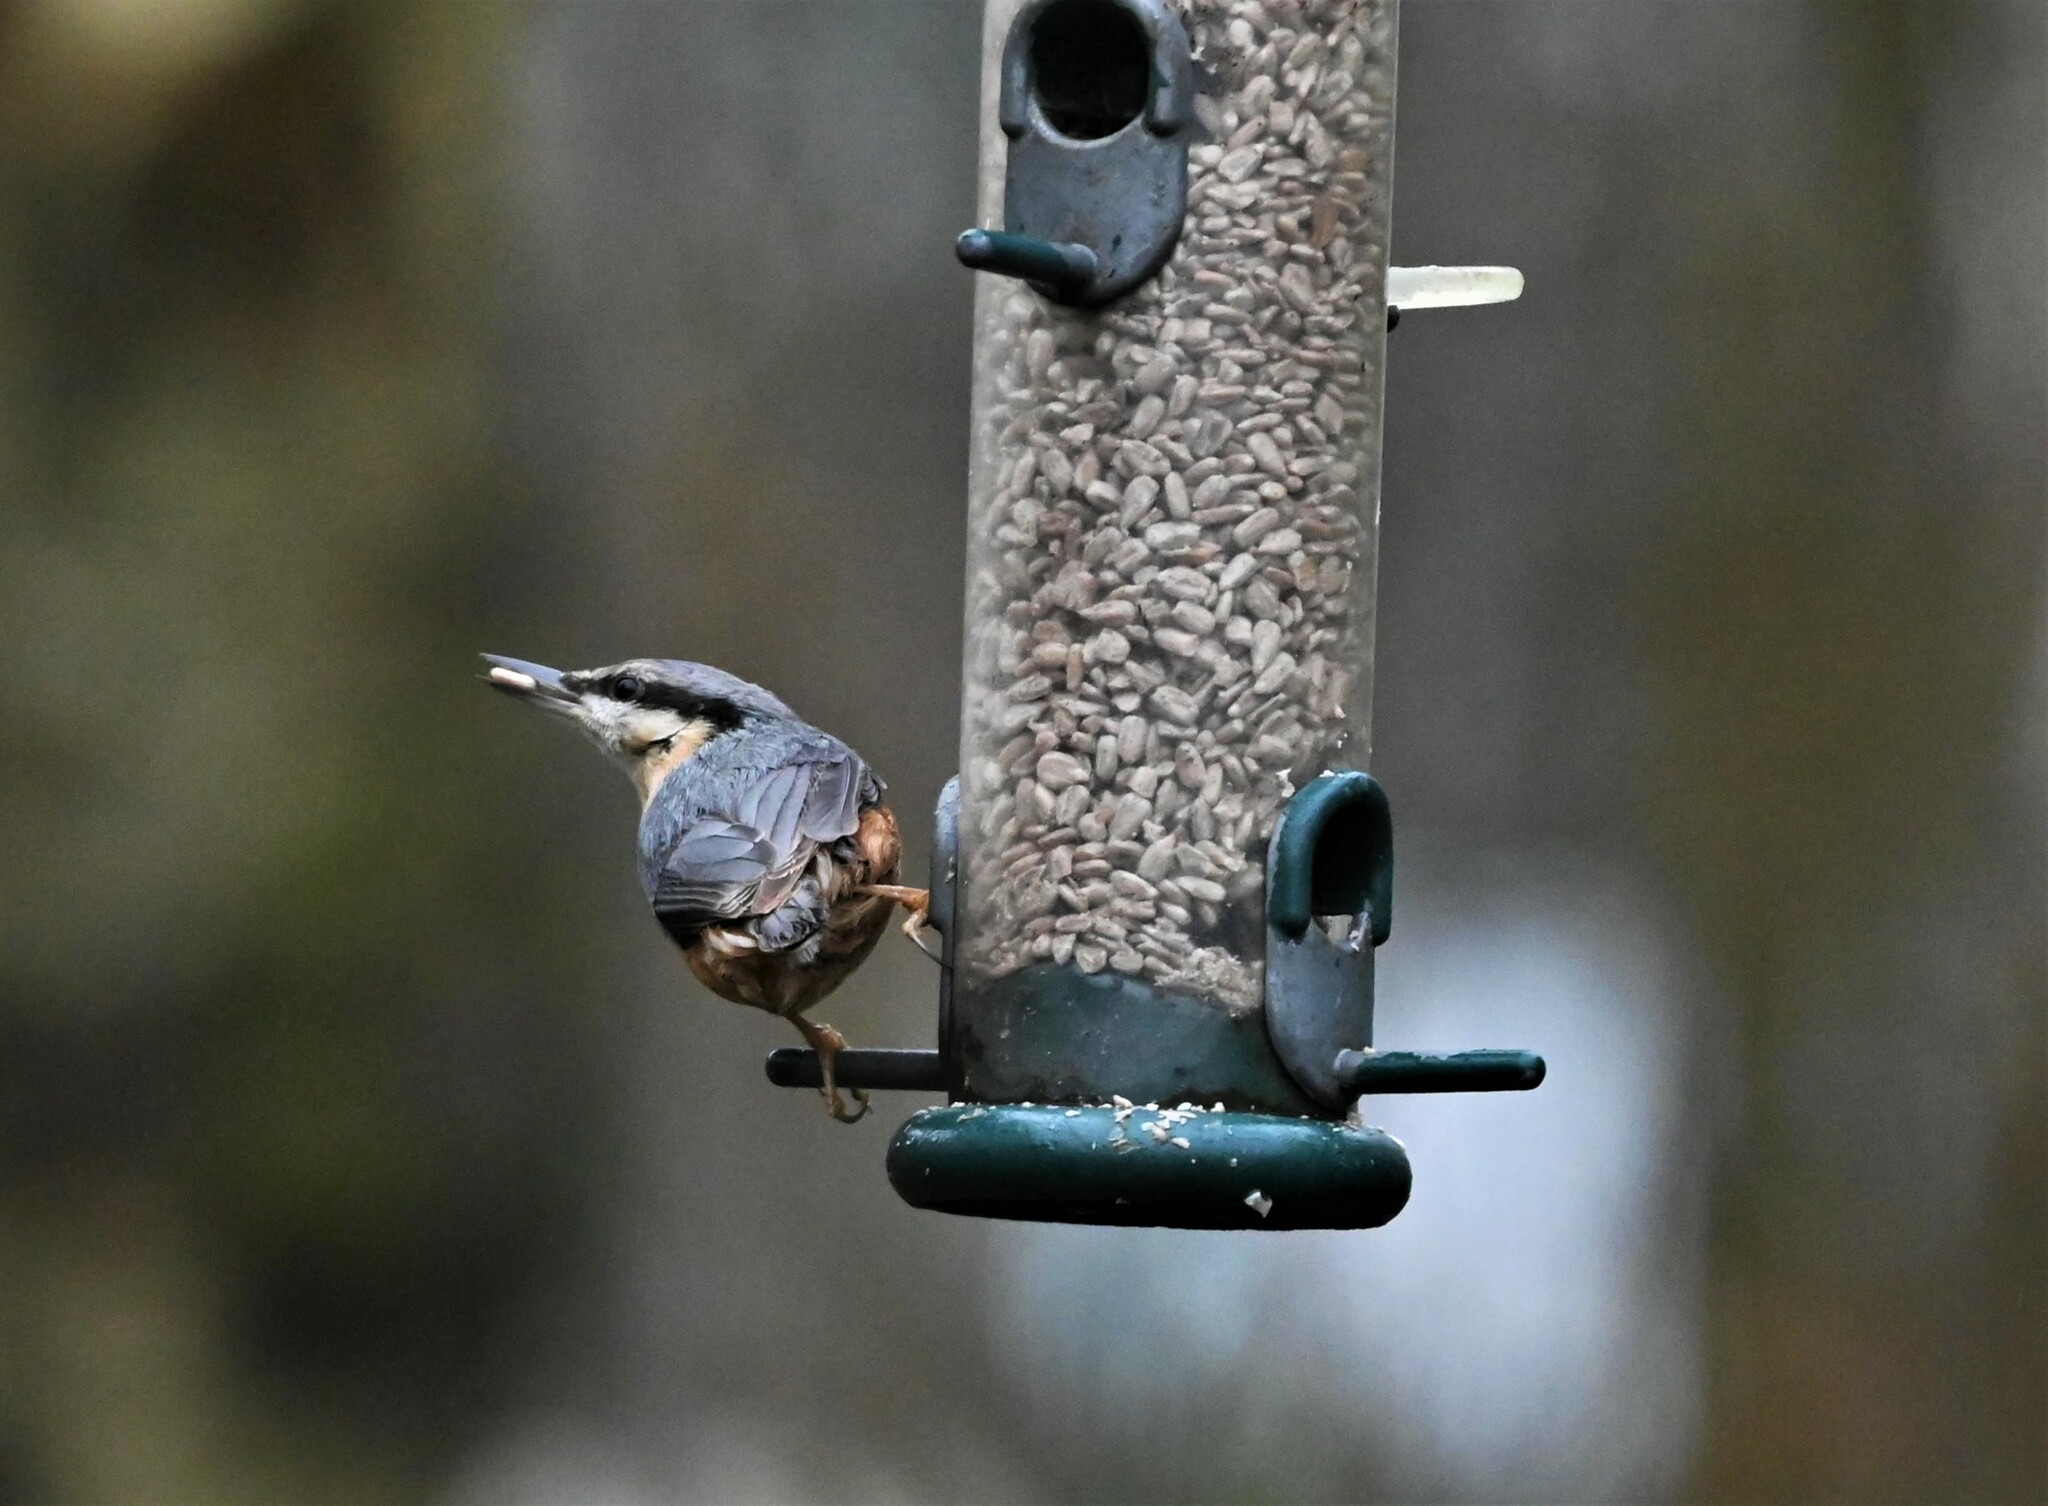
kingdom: Animalia
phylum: Chordata
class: Aves
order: Passeriformes
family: Sittidae
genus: Sitta
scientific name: Sitta europaea
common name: Eurasian nuthatch
